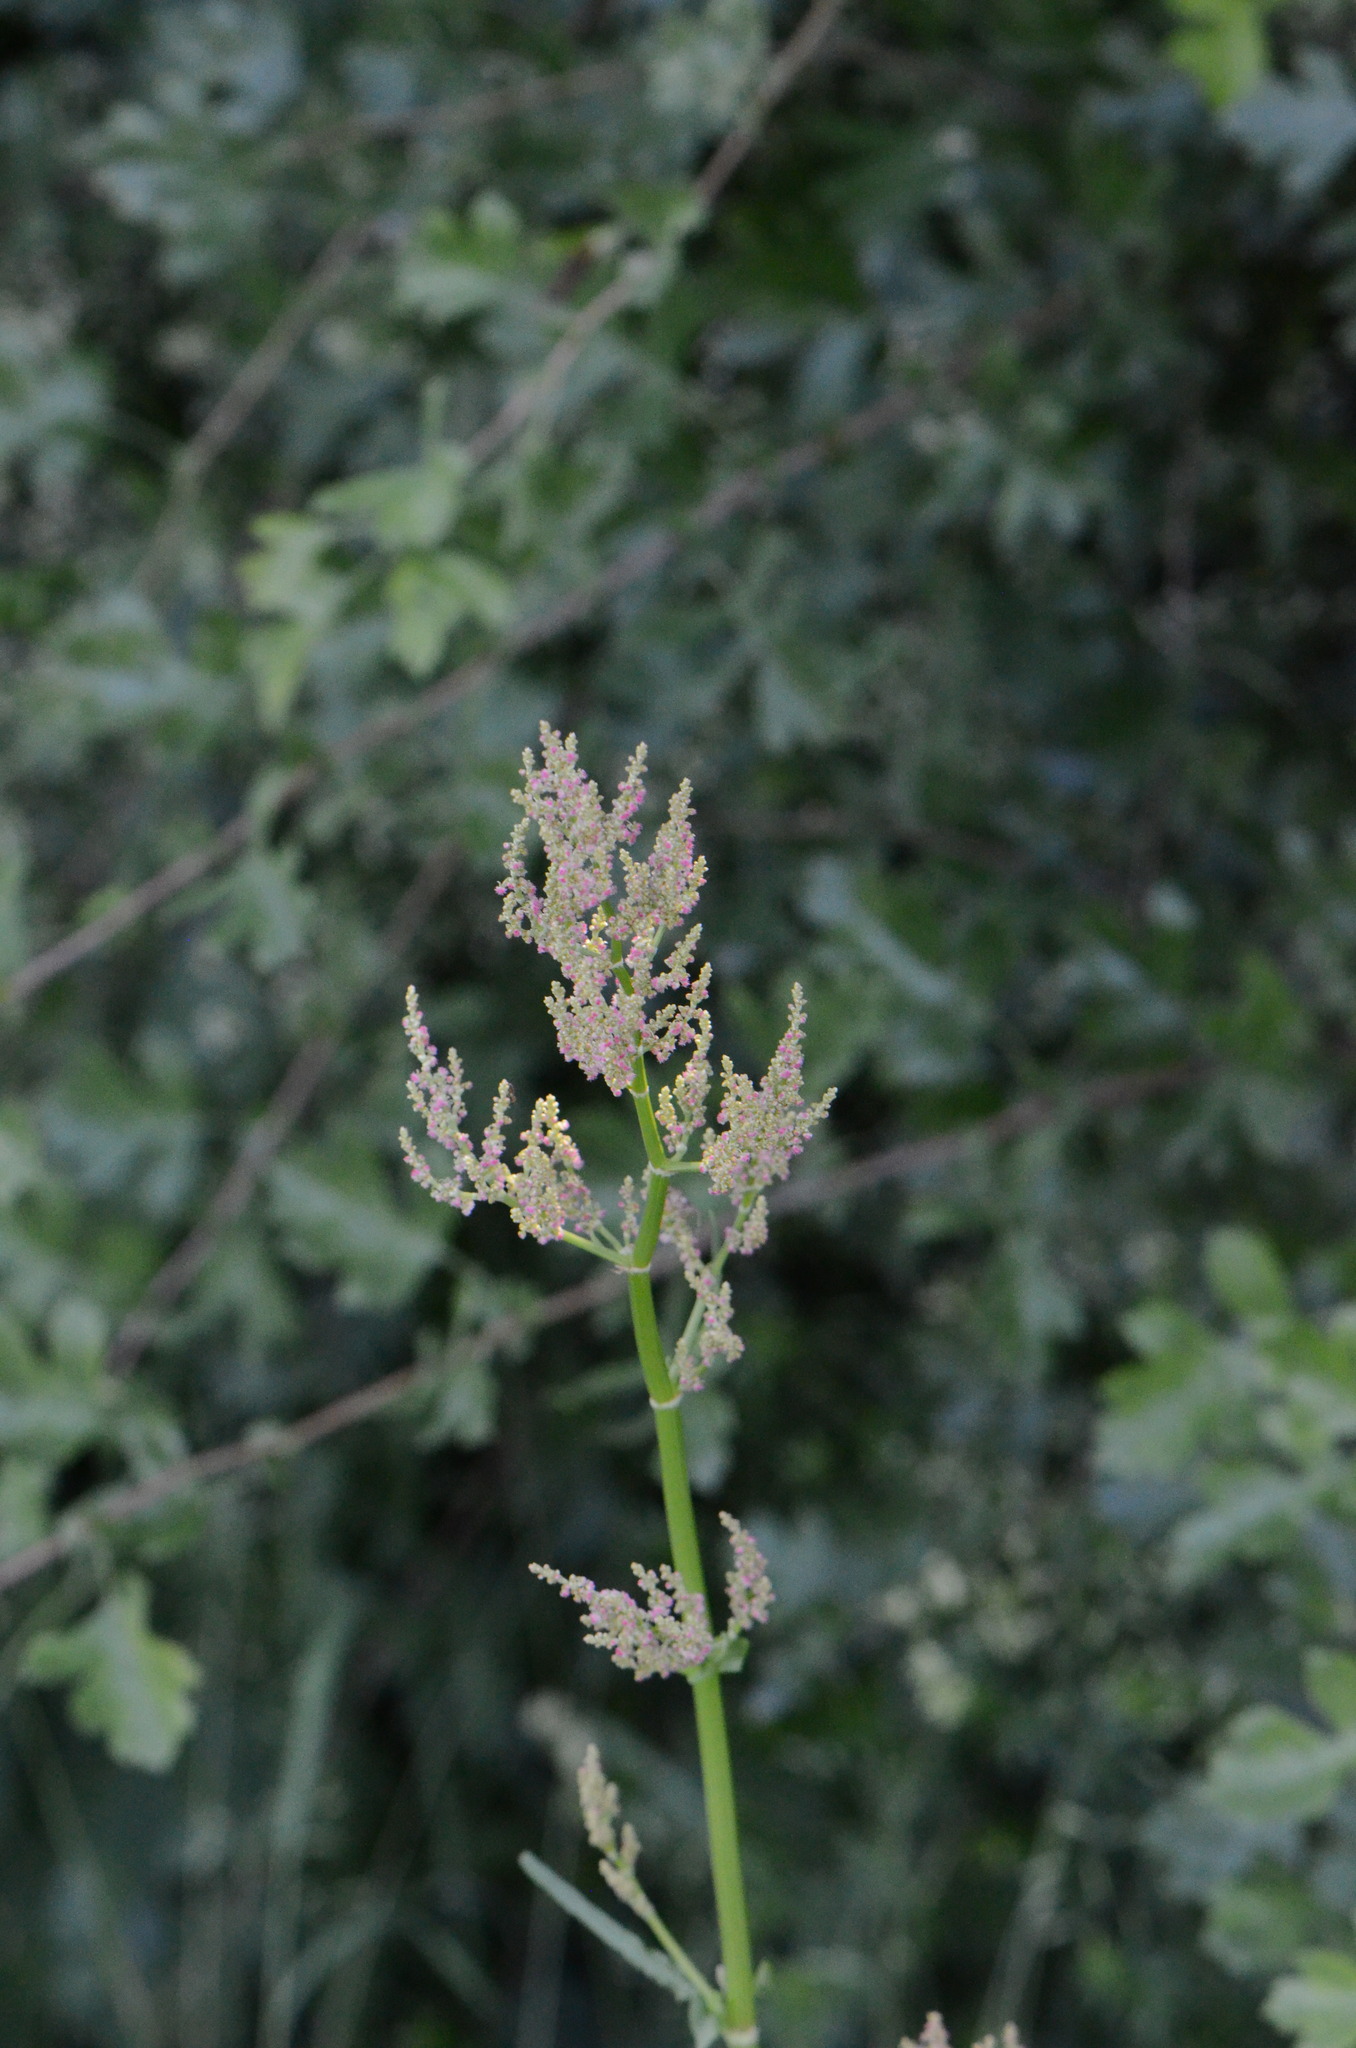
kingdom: Plantae
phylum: Tracheophyta
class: Magnoliopsida
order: Caryophyllales
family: Polygonaceae
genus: Rumex
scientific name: Rumex thyrsiflorus
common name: Garden sorrel
